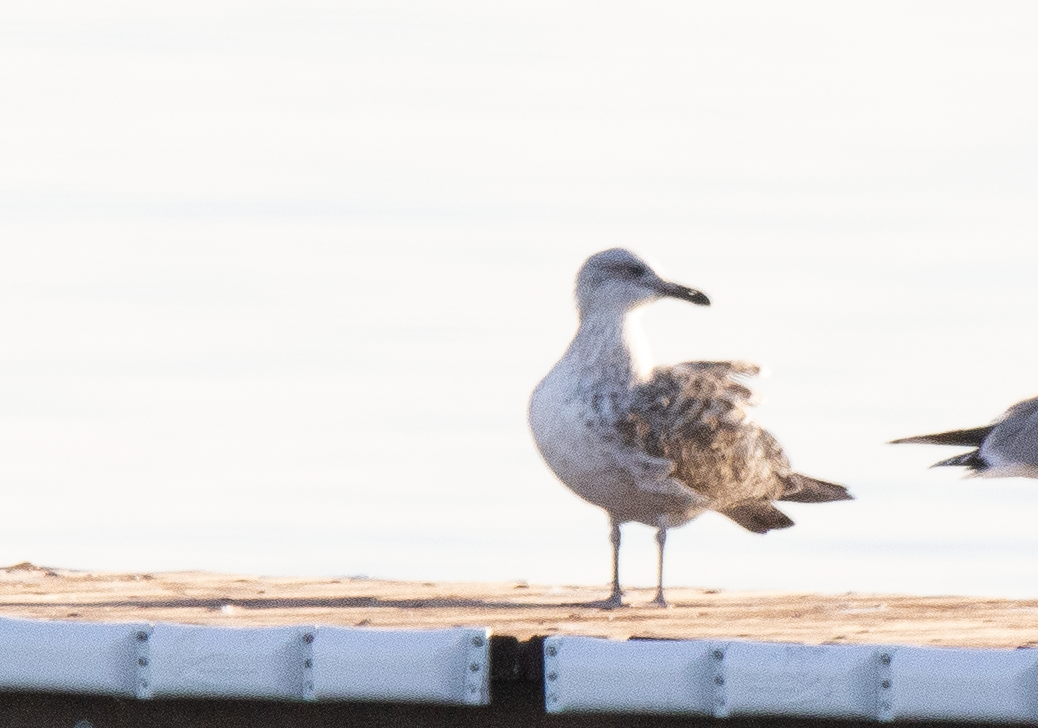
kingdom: Animalia
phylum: Chordata
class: Aves
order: Charadriiformes
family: Laridae
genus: Larus
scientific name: Larus cachinnans
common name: Caspian gull
